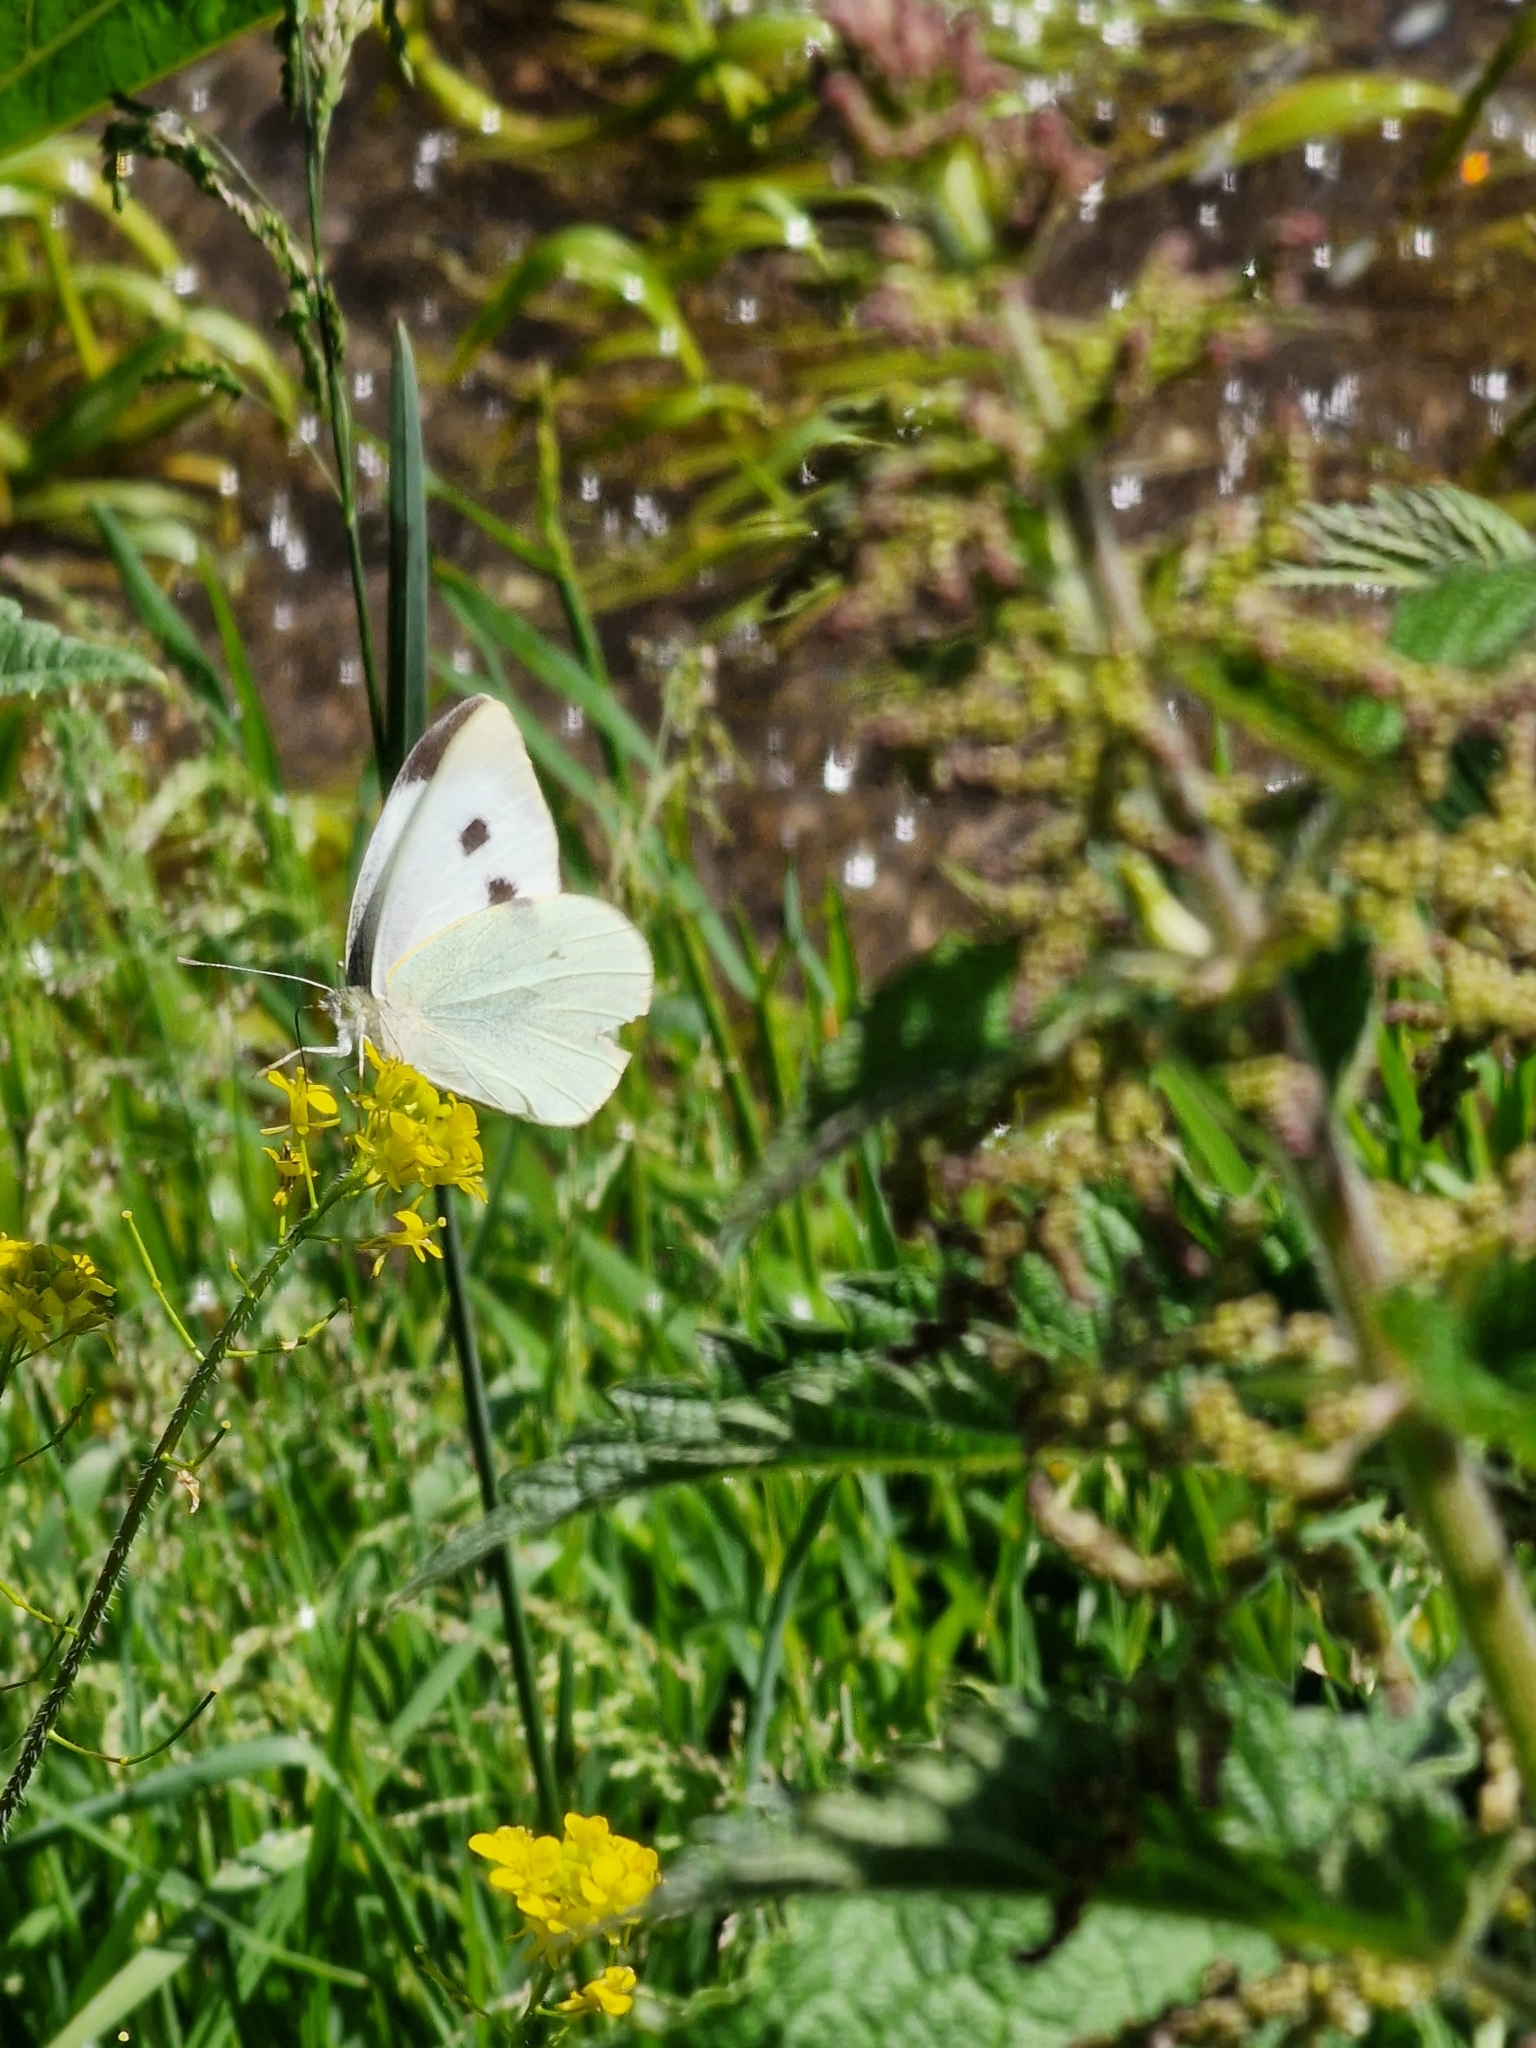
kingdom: Animalia
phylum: Arthropoda
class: Insecta
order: Lepidoptera
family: Pieridae
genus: Pieris
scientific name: Pieris brassicae
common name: Large white
